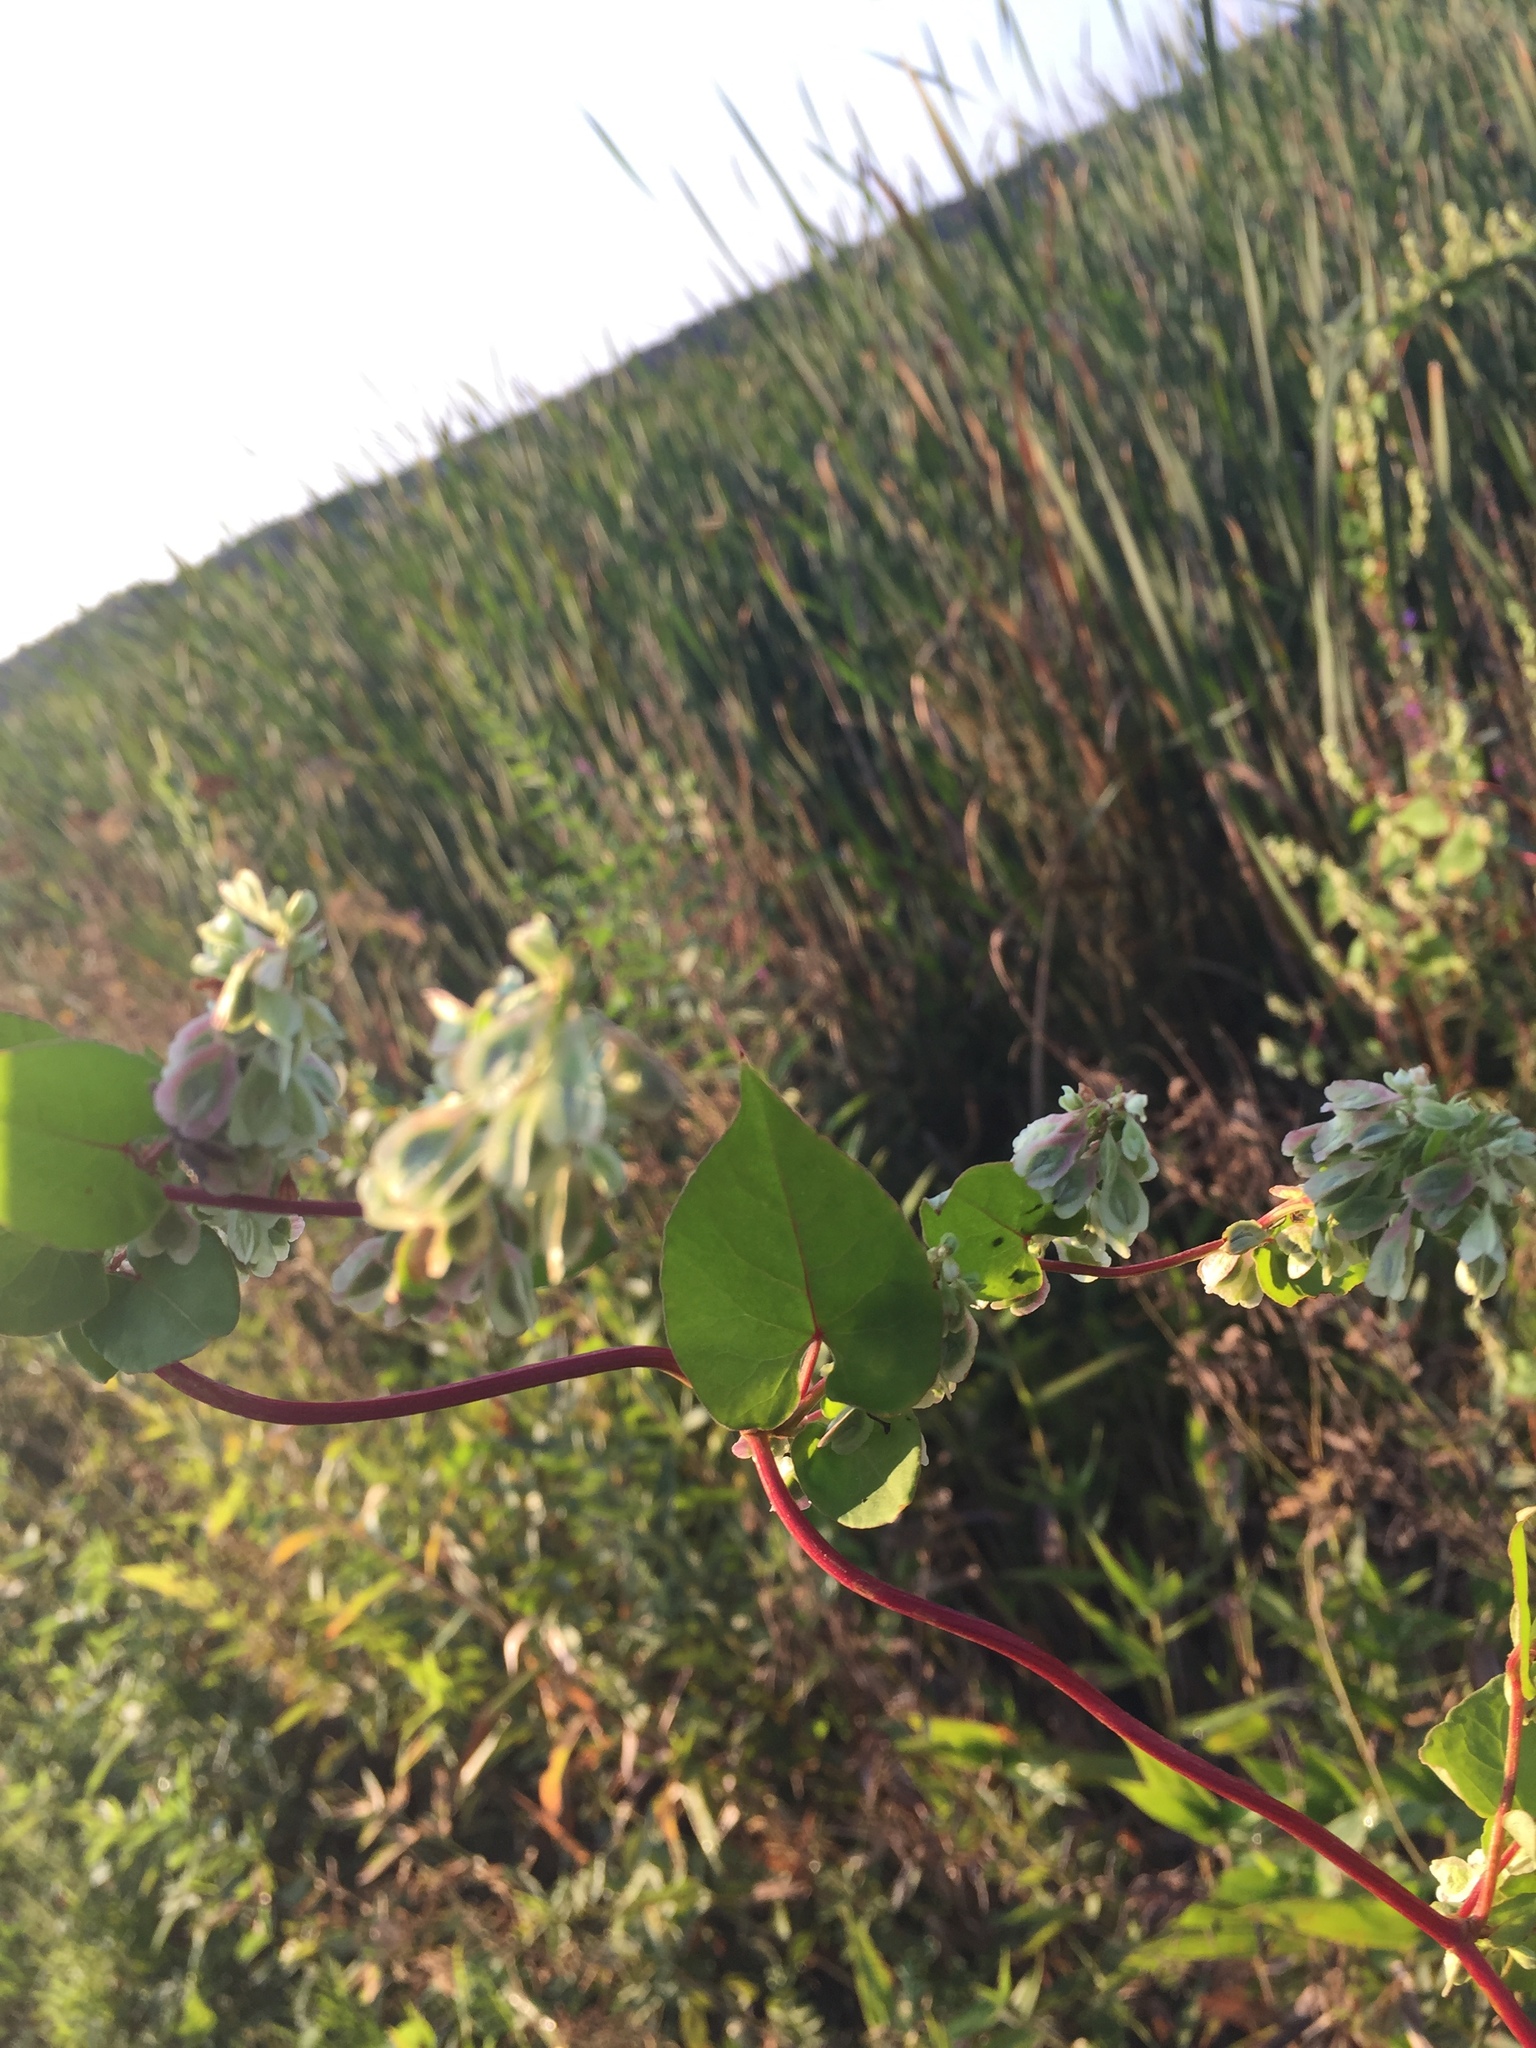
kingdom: Plantae
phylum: Tracheophyta
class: Magnoliopsida
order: Caryophyllales
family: Polygonaceae
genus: Fallopia
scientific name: Fallopia scandens
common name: Climbing false buckwheat
